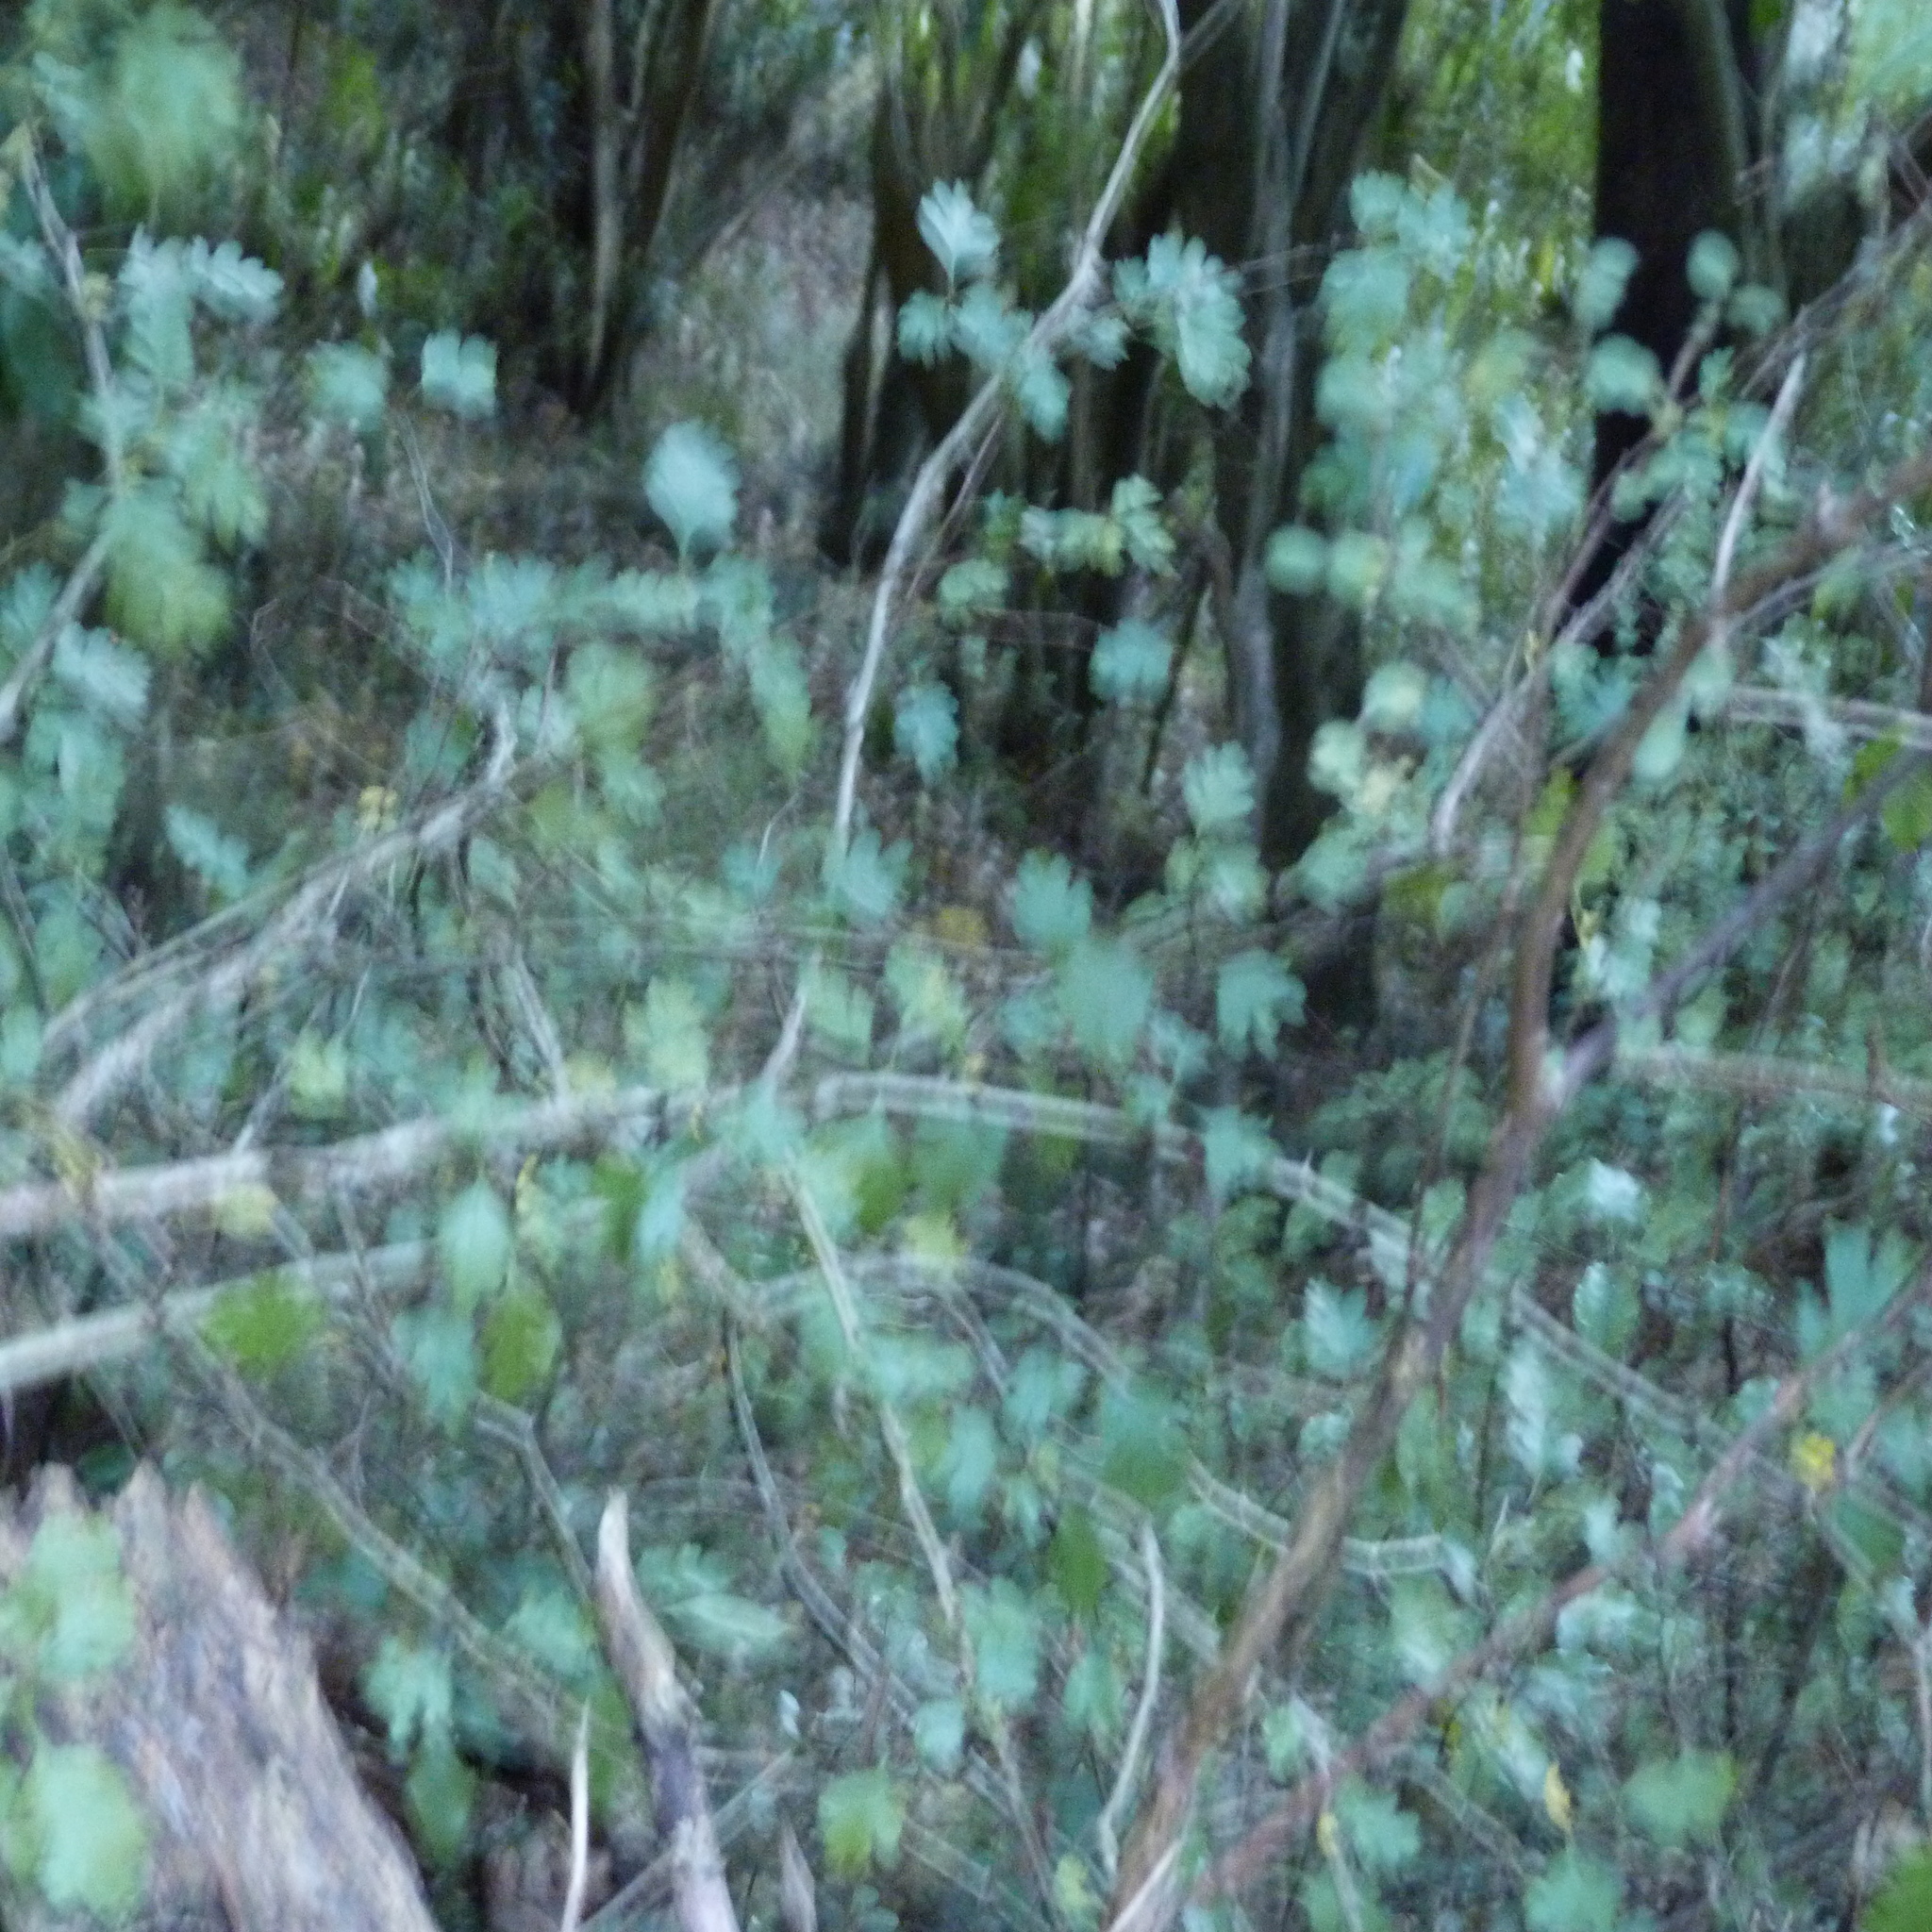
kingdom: Plantae
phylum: Tracheophyta
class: Magnoliopsida
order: Rosales
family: Rosaceae
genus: Crataegus
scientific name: Crataegus monogyna
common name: Hawthorn
